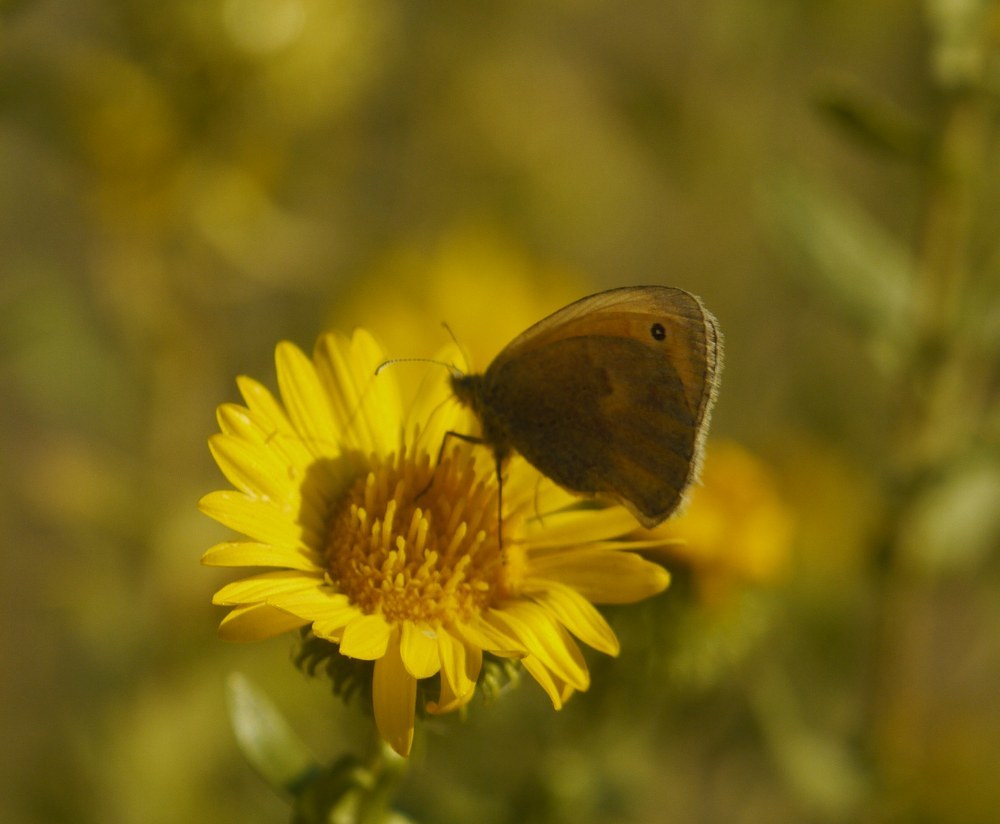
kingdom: Animalia
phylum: Arthropoda
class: Insecta
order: Lepidoptera
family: Nymphalidae
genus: Coenonympha
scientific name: Coenonympha pamphilus
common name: Small heath
